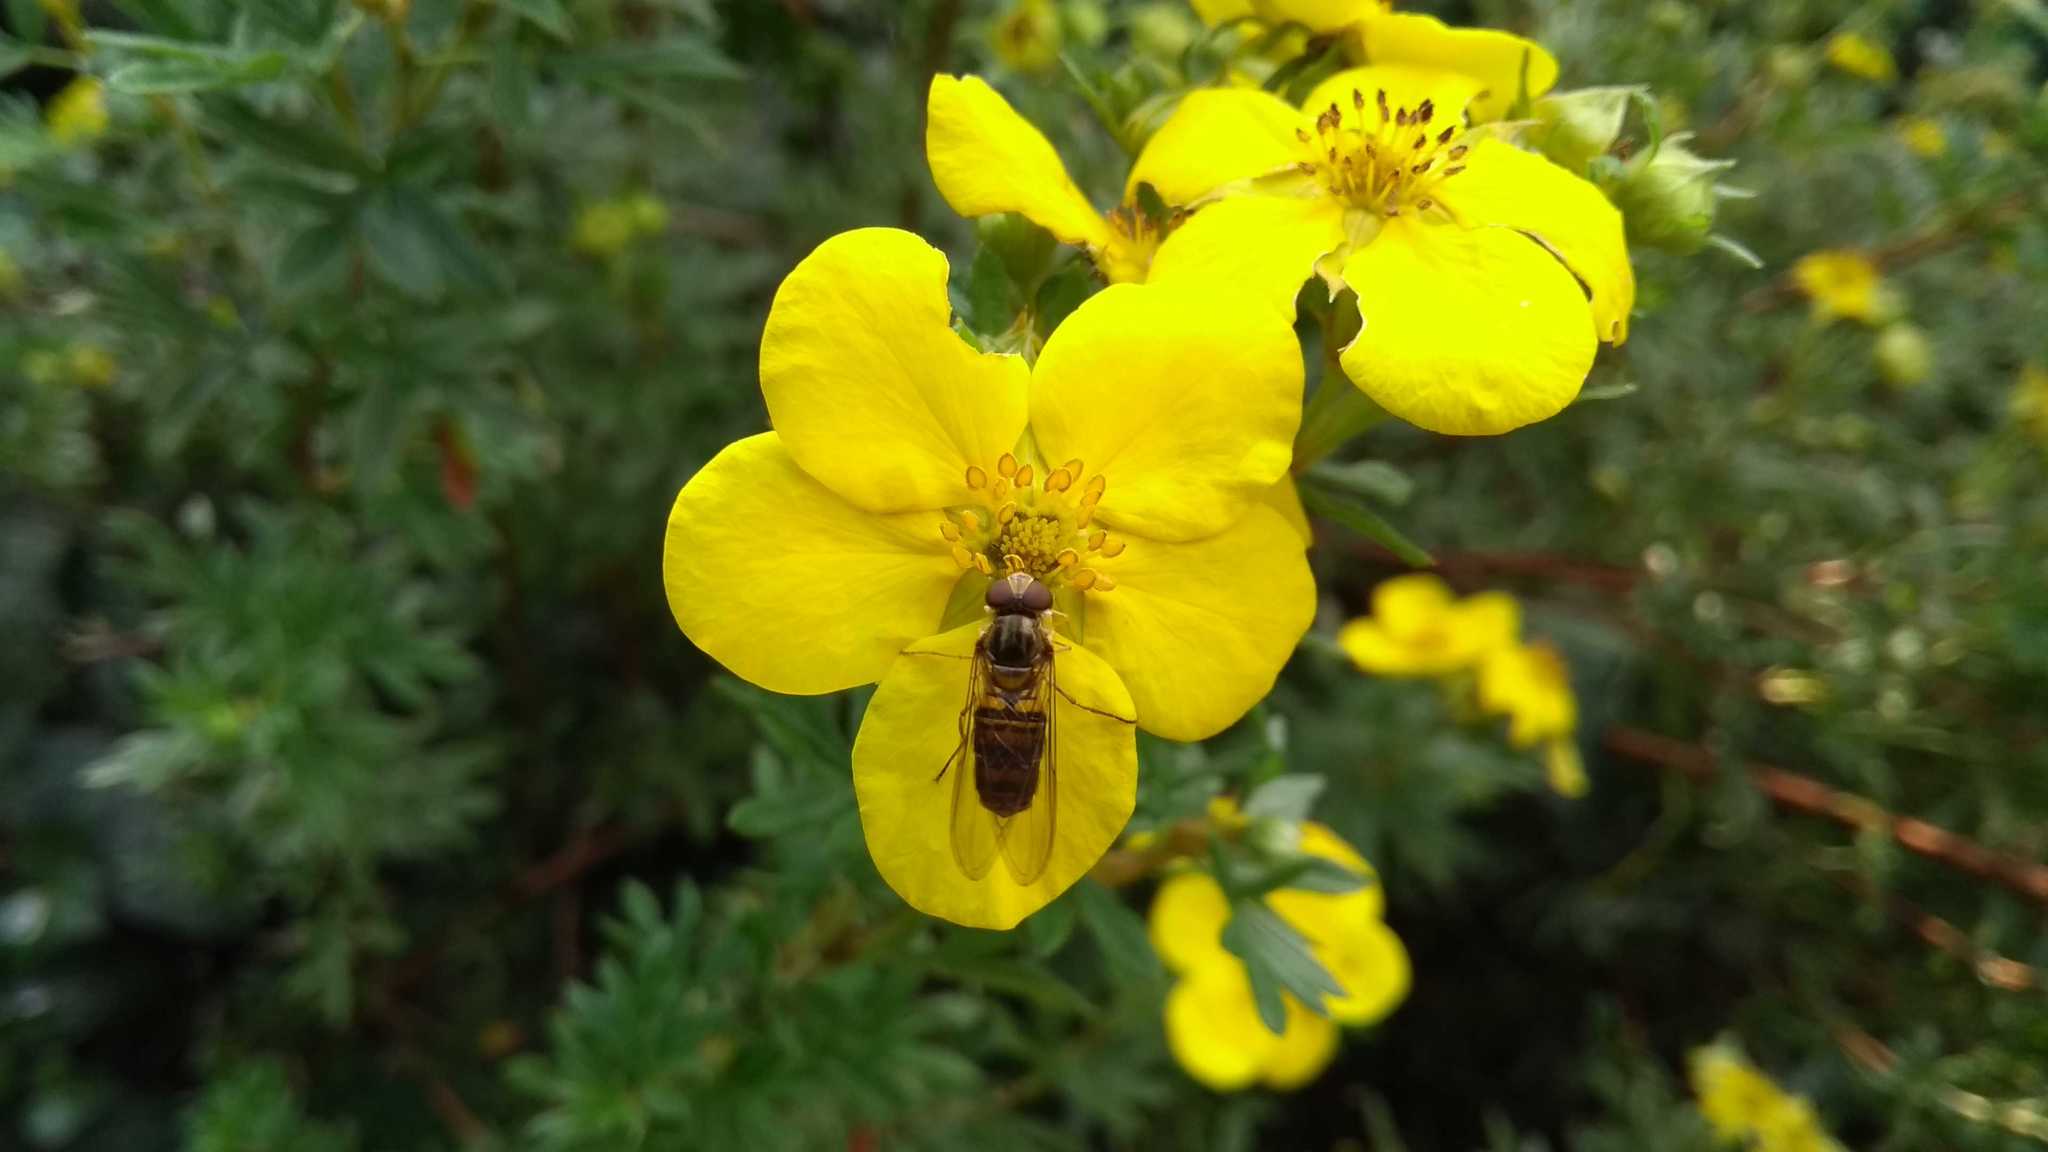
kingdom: Animalia
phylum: Arthropoda
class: Insecta
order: Diptera
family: Syrphidae
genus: Episyrphus
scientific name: Episyrphus balteatus
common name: Marmalade hoverfly
